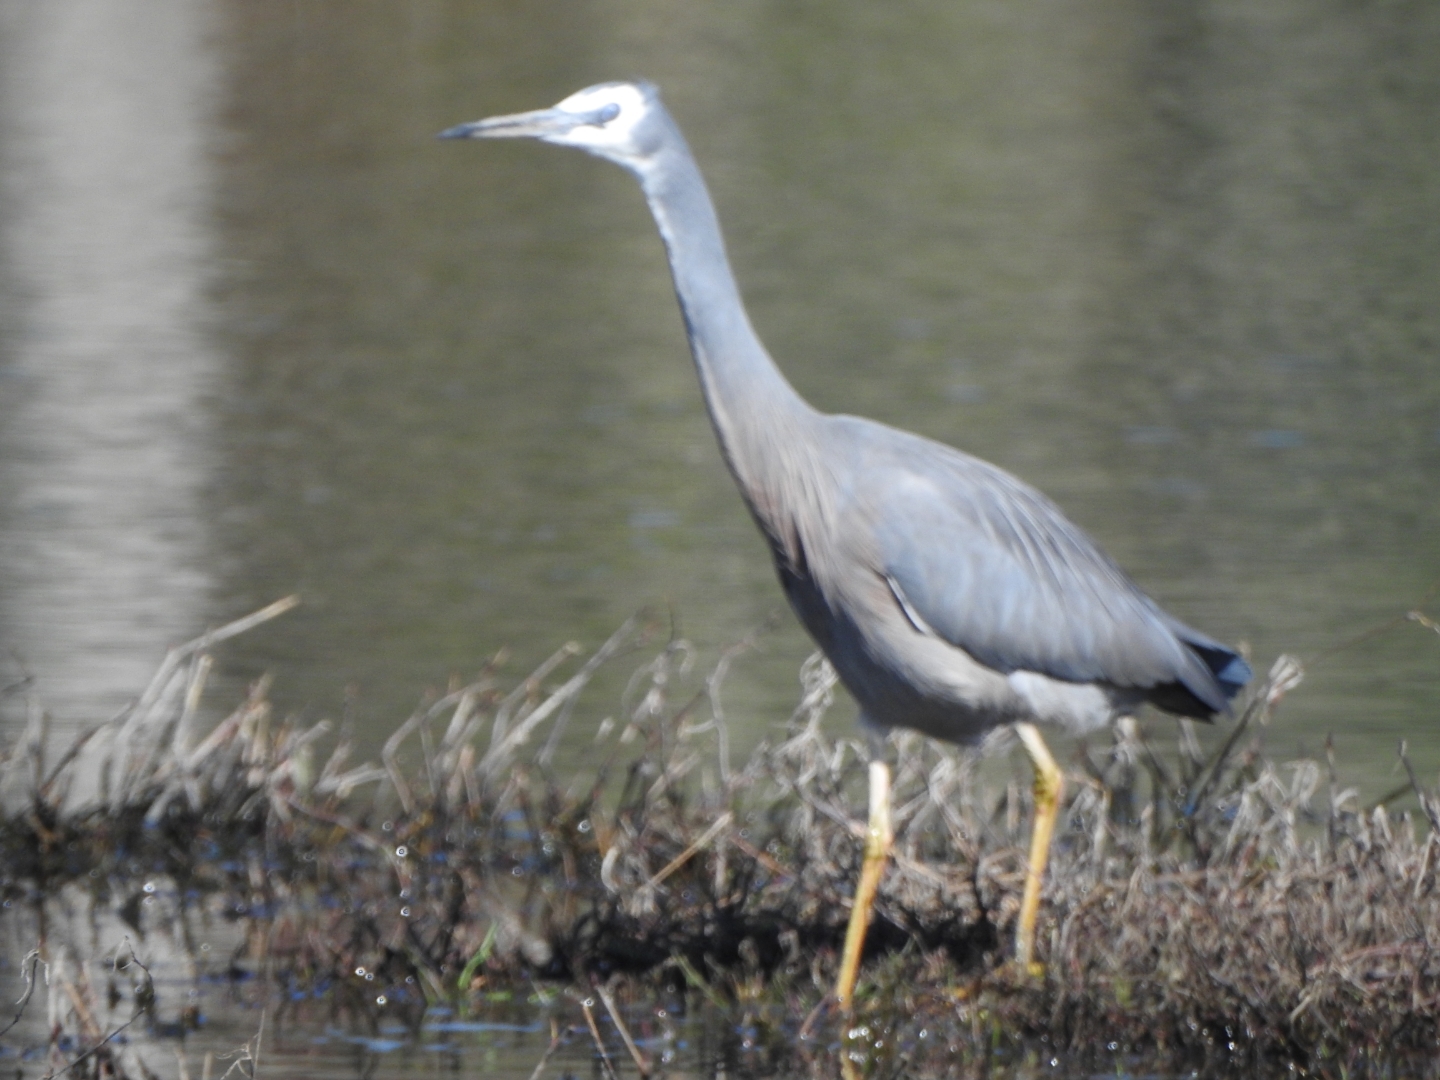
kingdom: Animalia
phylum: Chordata
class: Aves
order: Pelecaniformes
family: Ardeidae
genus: Egretta
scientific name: Egretta novaehollandiae
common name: White-faced heron
